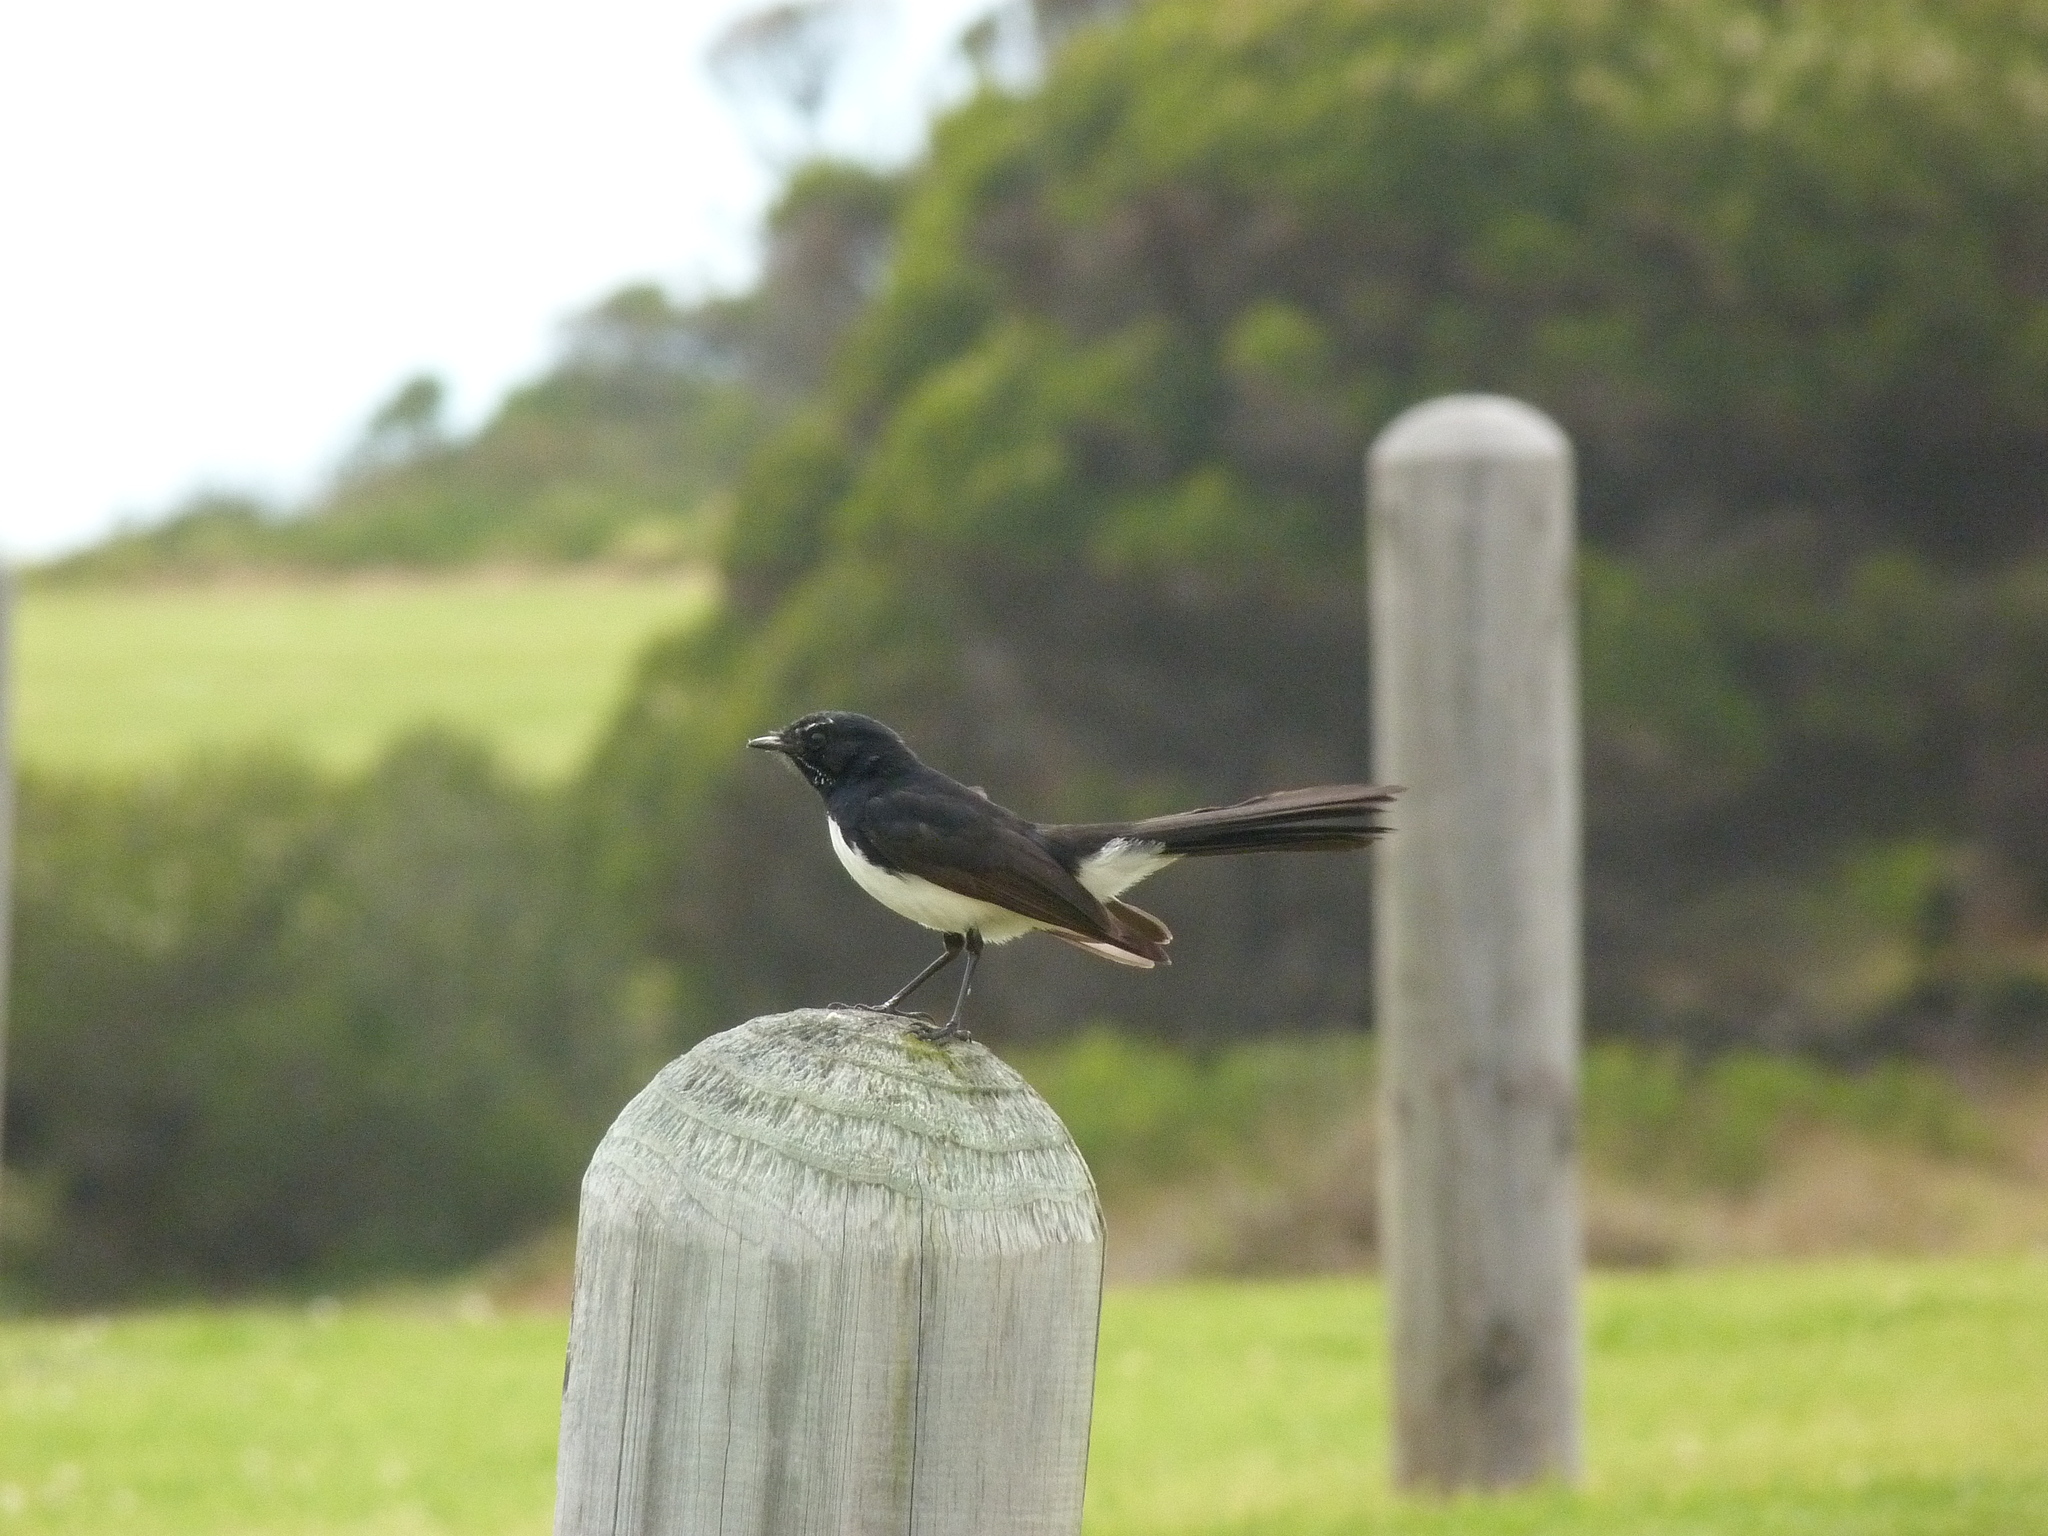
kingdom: Animalia
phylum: Chordata
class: Aves
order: Passeriformes
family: Rhipiduridae
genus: Rhipidura
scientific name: Rhipidura leucophrys
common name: Willie wagtail
